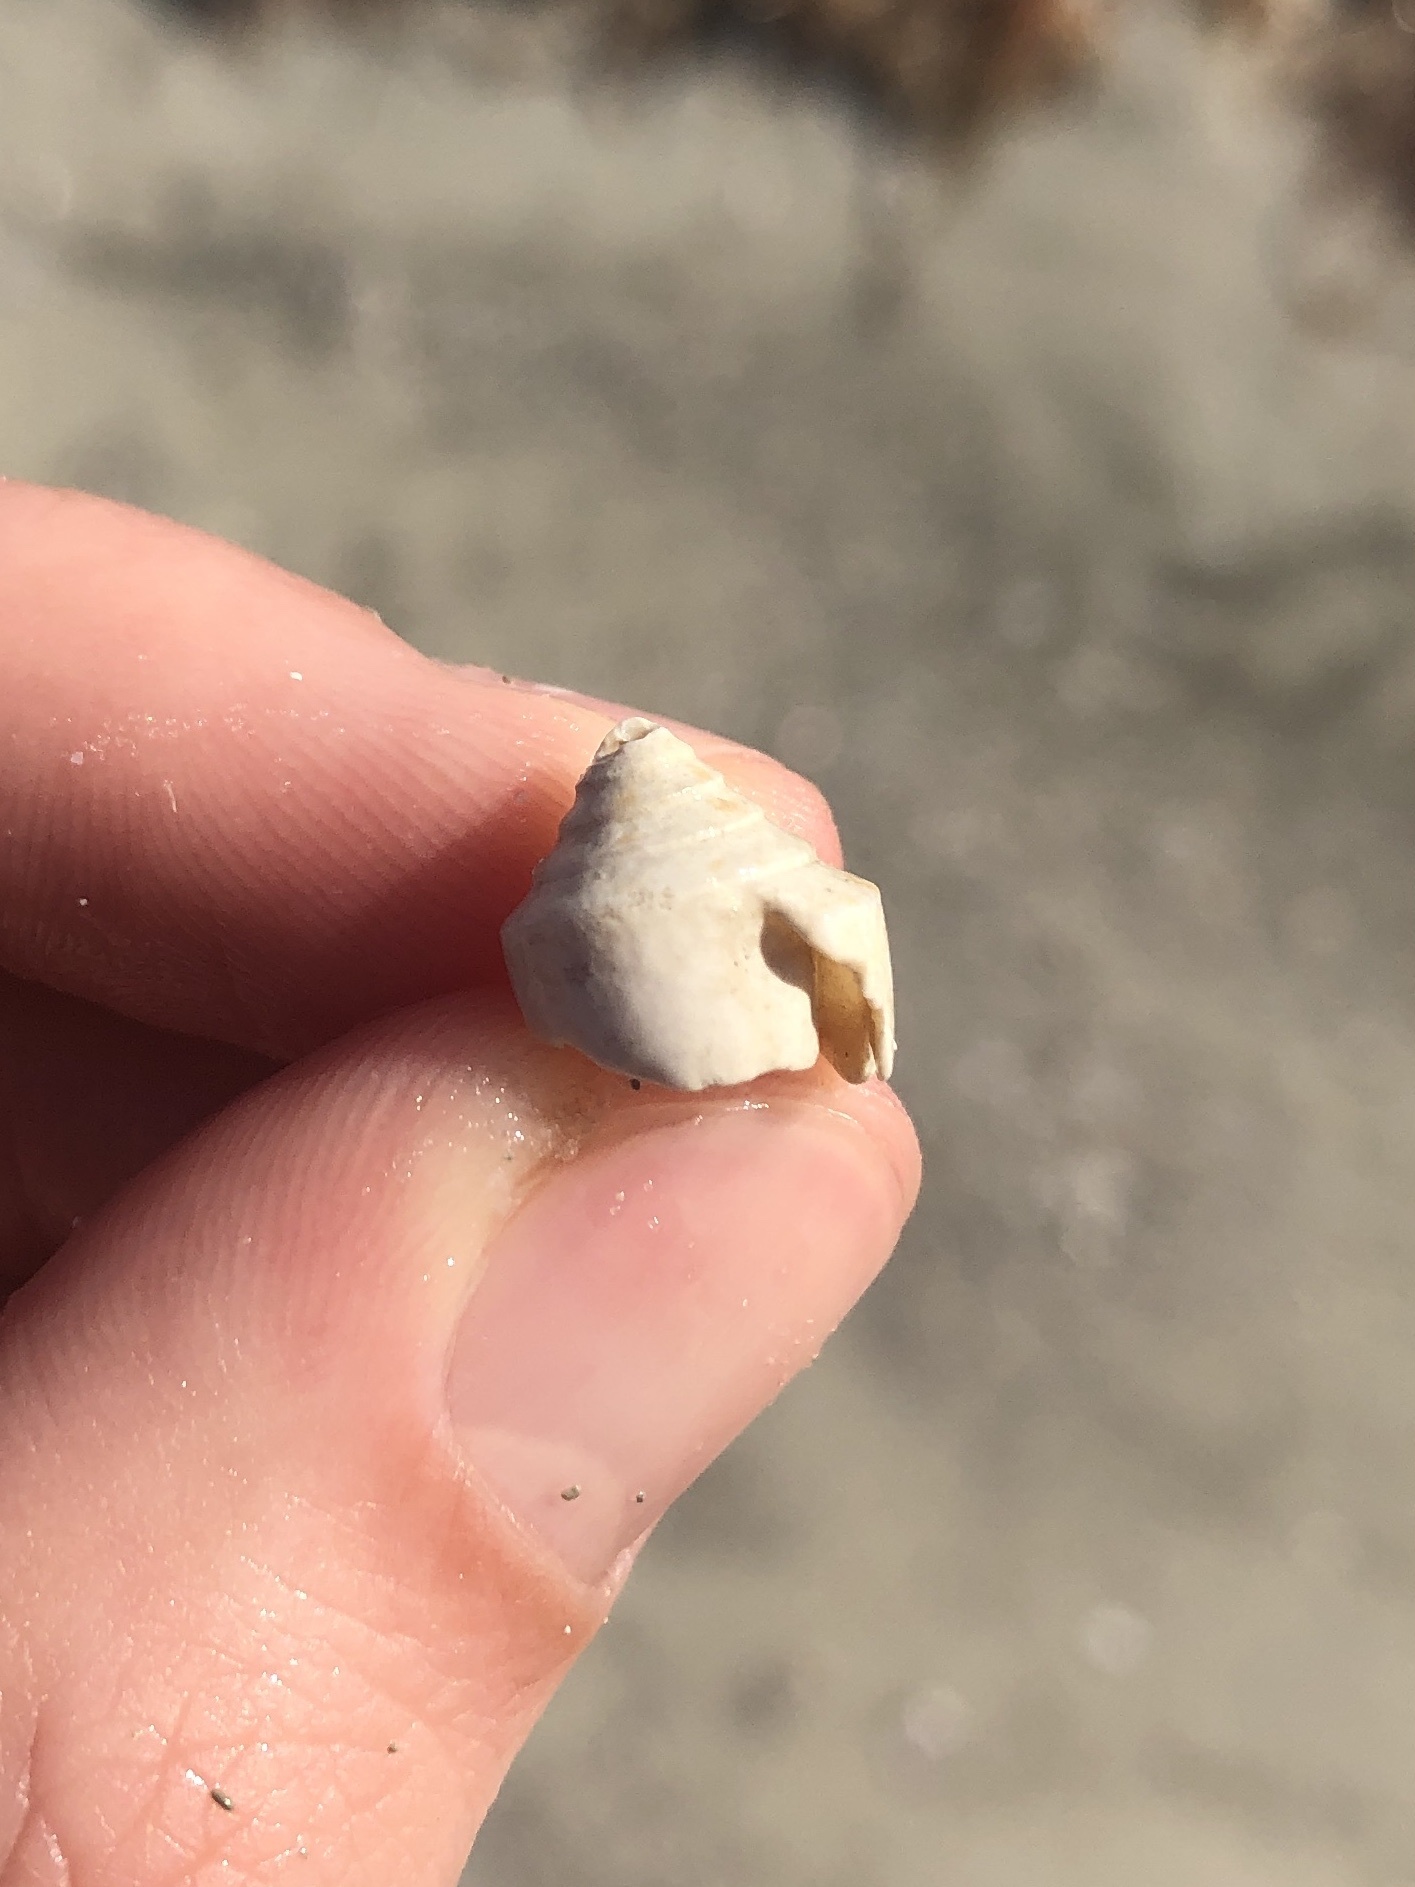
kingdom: Animalia
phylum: Mollusca
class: Gastropoda
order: Neogastropoda
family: Conidae
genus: Conus
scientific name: Conus scalaris
